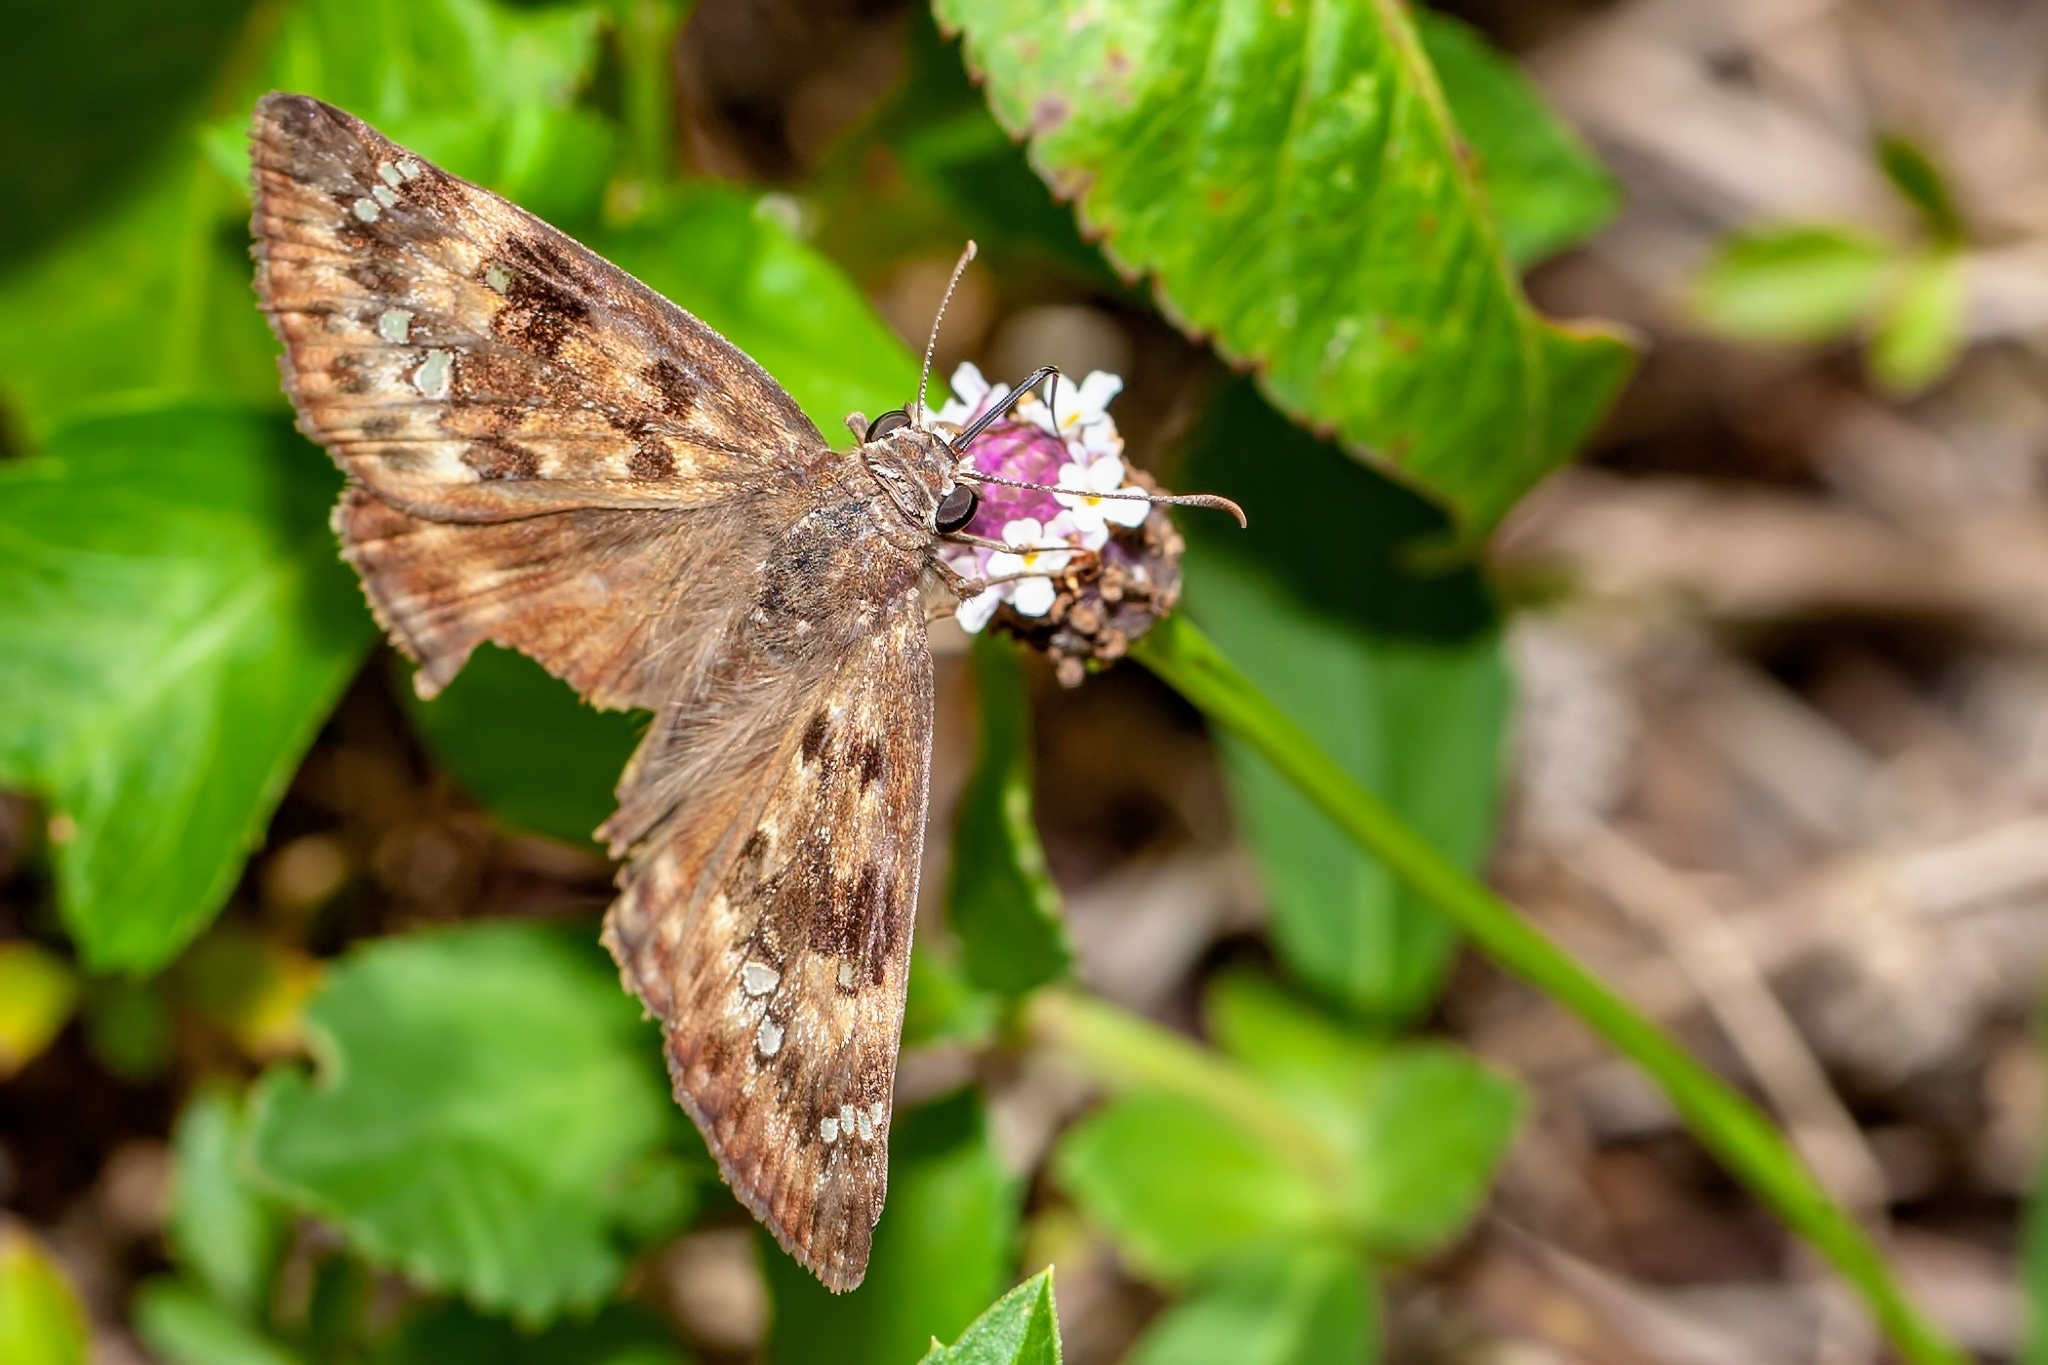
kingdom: Animalia
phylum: Arthropoda
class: Insecta
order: Lepidoptera
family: Hesperiidae
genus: Erynnis
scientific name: Erynnis horatius
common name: Horace's duskywing
